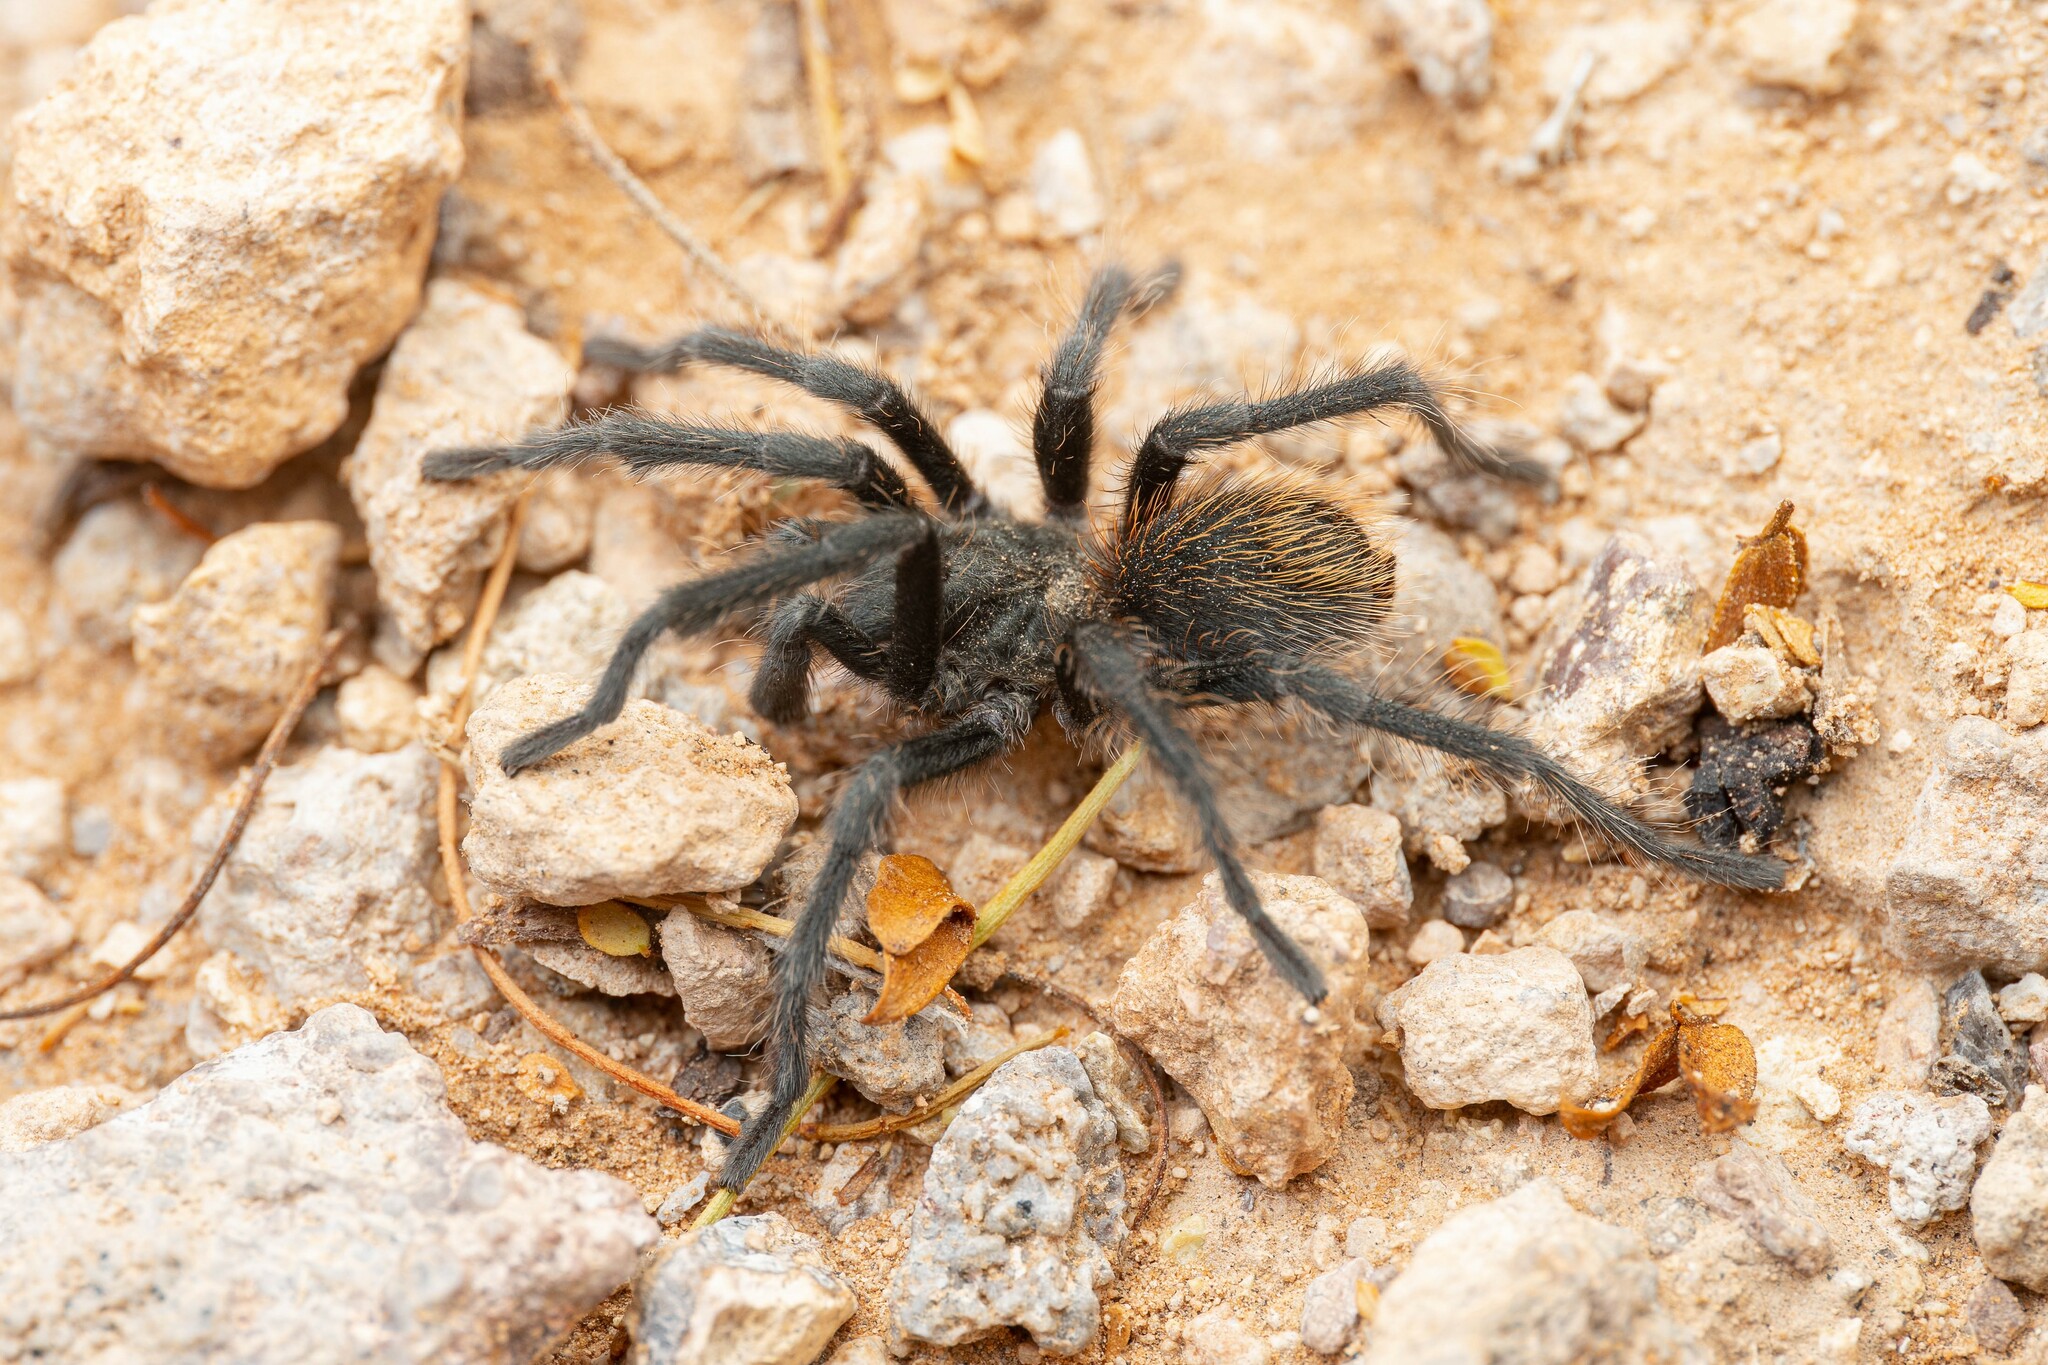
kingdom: Animalia
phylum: Arthropoda
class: Arachnida
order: Araneae
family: Theraphosidae
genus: Aphonopelma
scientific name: Aphonopelma paloma
